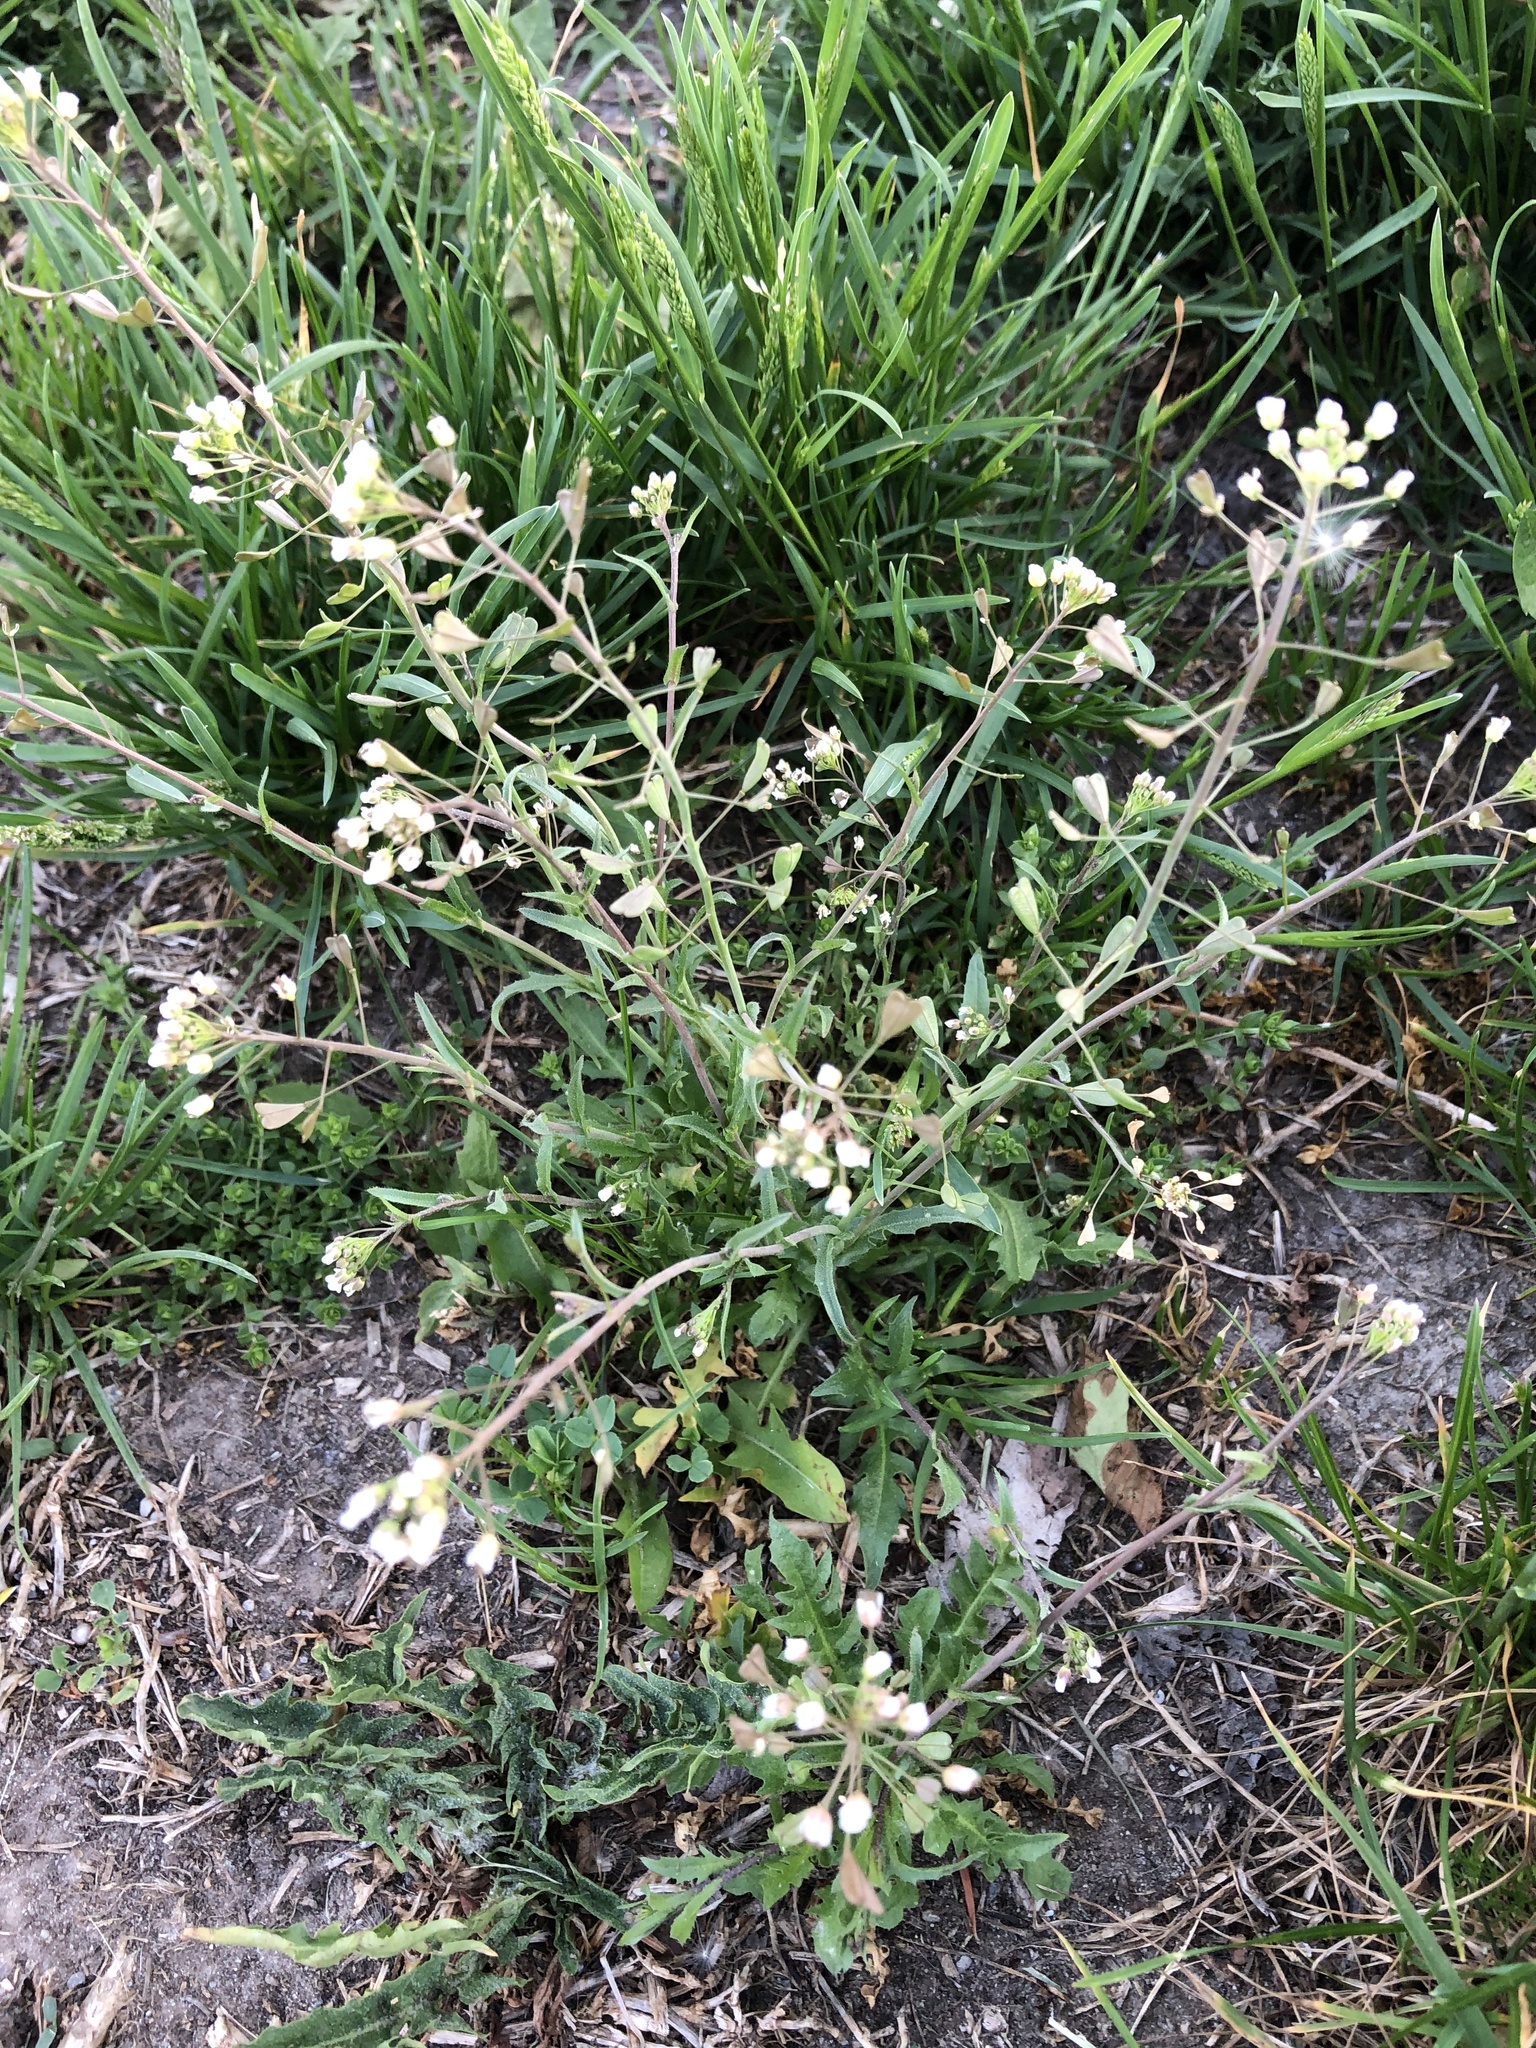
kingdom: Plantae
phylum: Tracheophyta
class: Magnoliopsida
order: Brassicales
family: Brassicaceae
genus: Capsella
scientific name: Capsella bursa-pastoris
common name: Shepherd's purse
